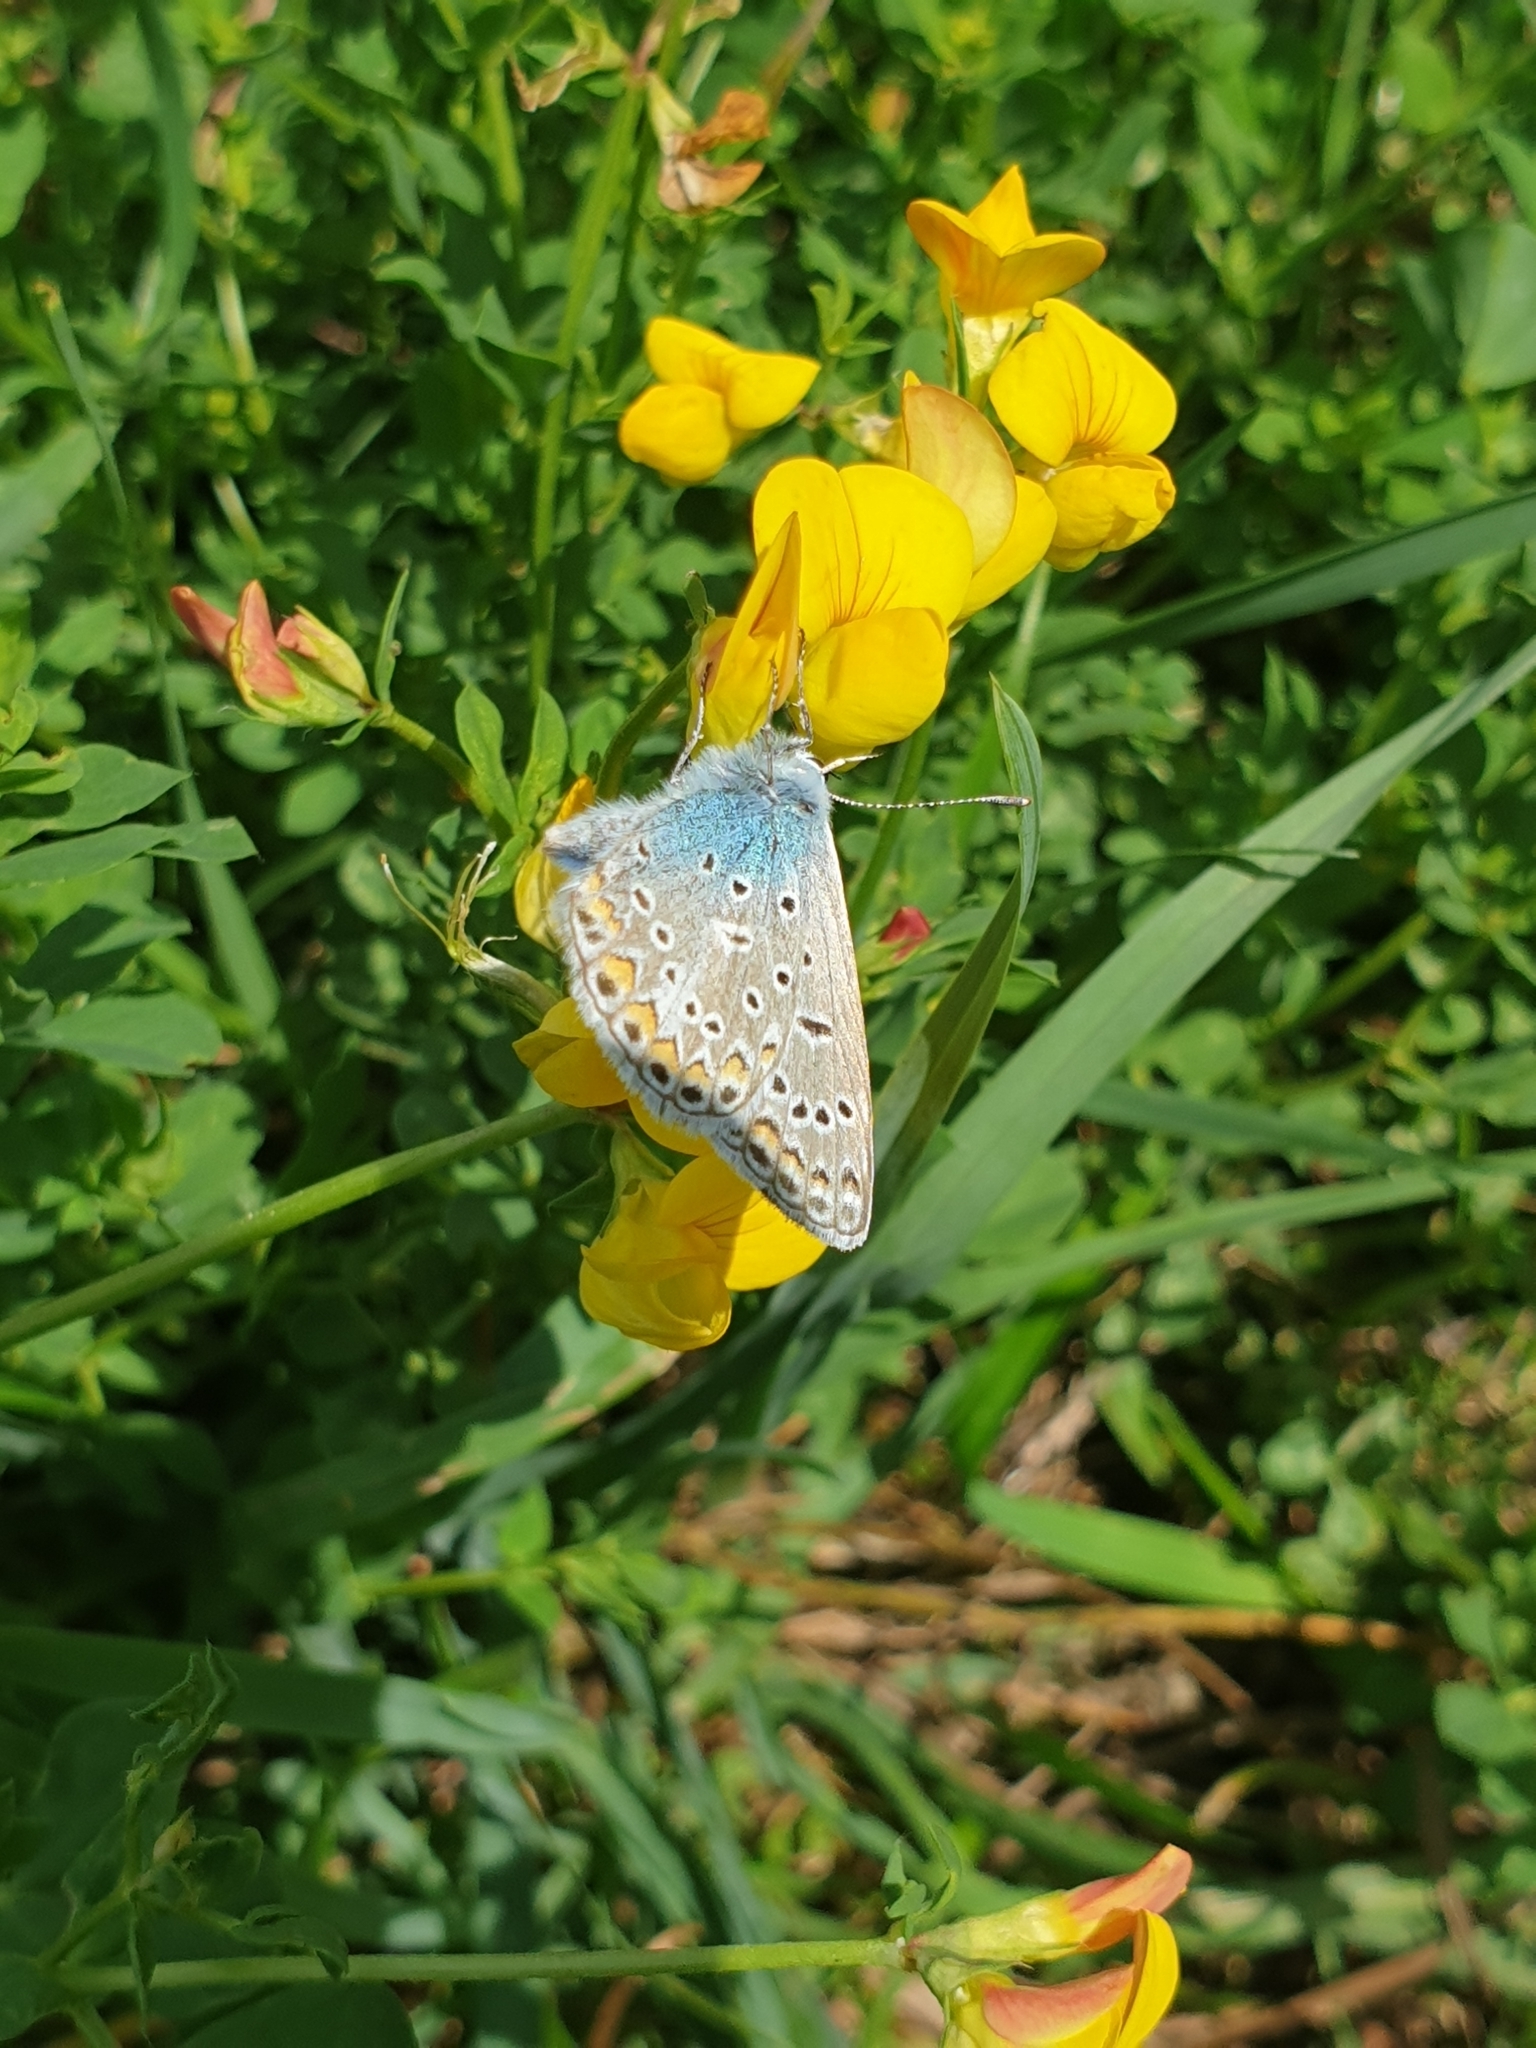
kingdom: Animalia
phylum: Arthropoda
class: Insecta
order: Lepidoptera
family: Lycaenidae
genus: Polyommatus
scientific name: Polyommatus icarus
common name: Common blue
